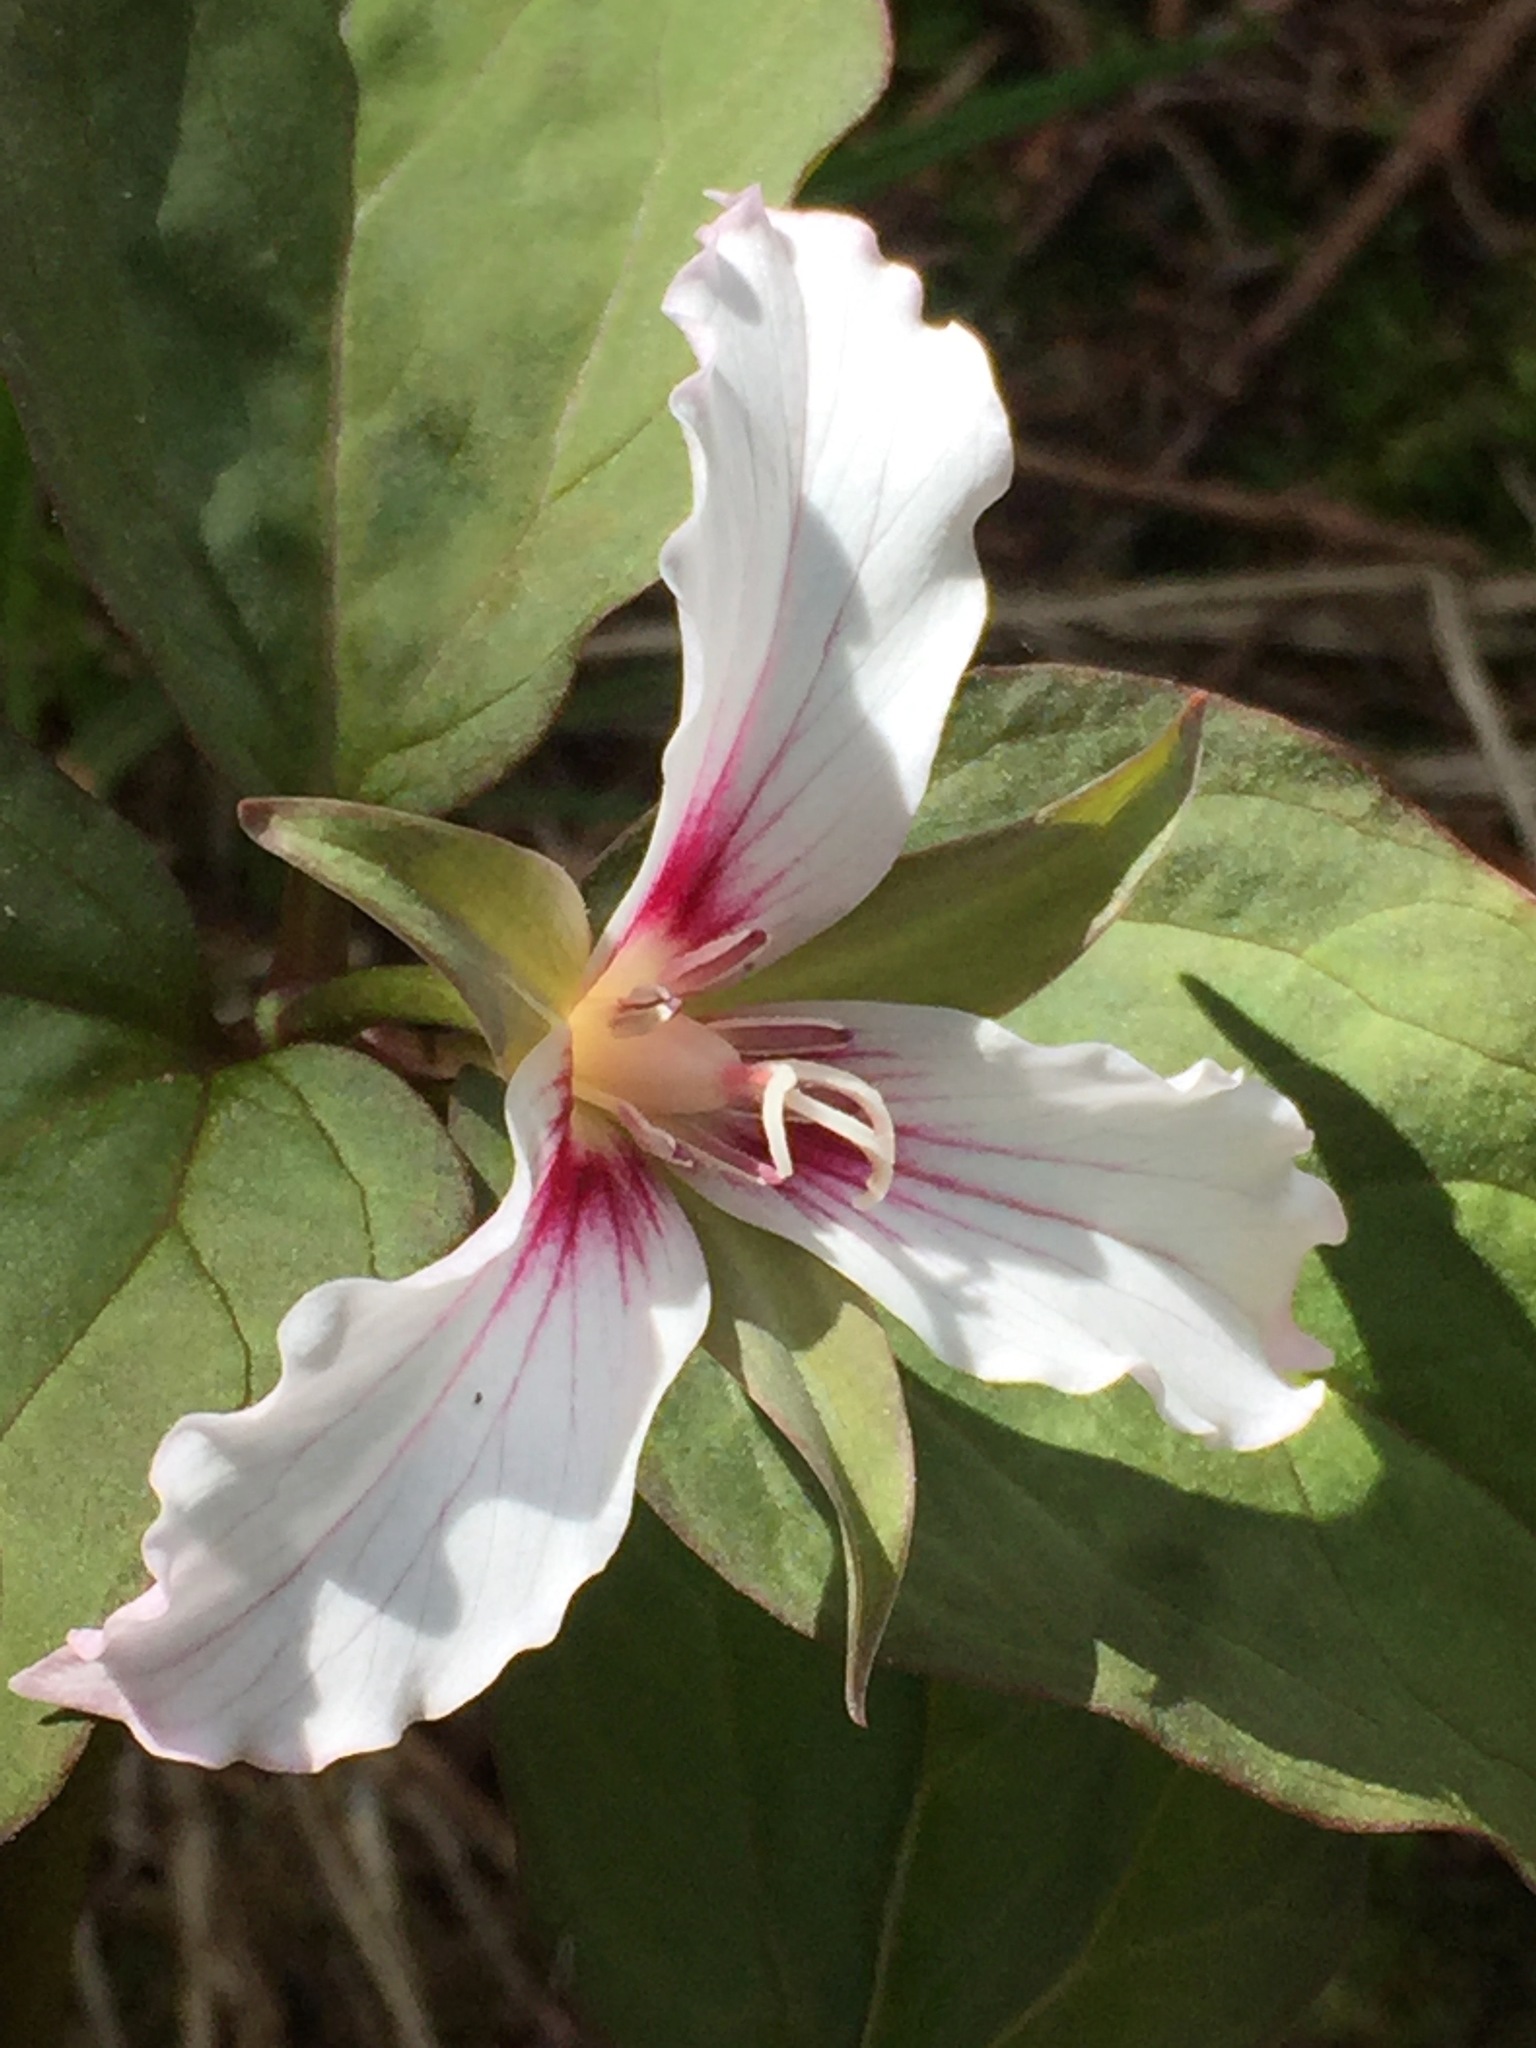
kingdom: Plantae
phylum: Tracheophyta
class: Liliopsida
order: Liliales
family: Melanthiaceae
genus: Trillium
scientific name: Trillium undulatum
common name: Paint trillium
